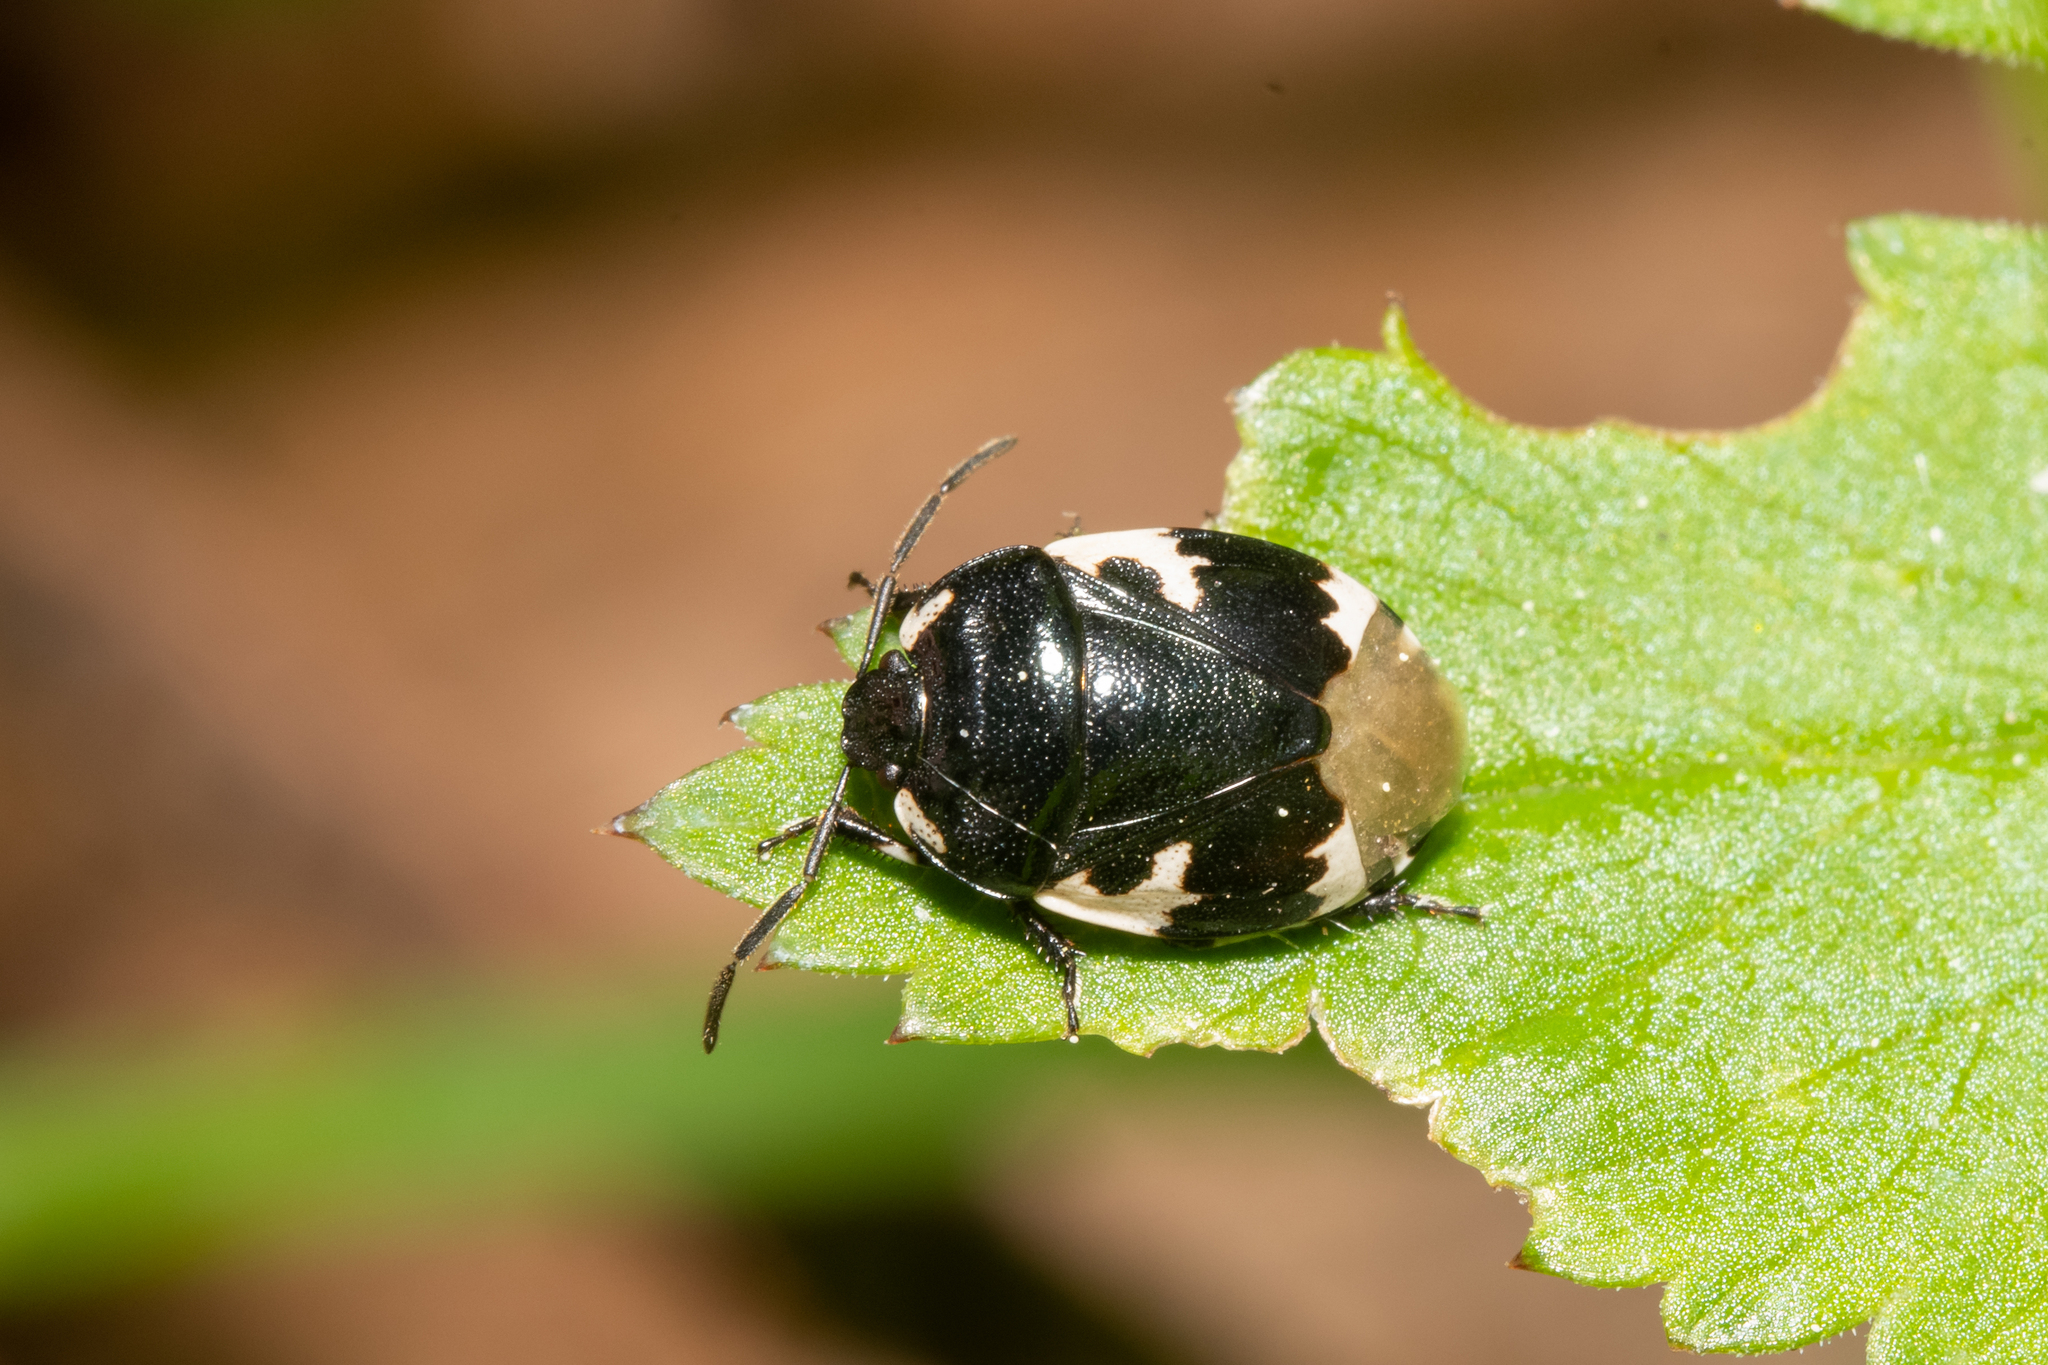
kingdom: Animalia
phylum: Arthropoda
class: Insecta
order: Hemiptera
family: Cydnidae
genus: Tritomegas
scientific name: Tritomegas bicolor
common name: Pied shieldbug
